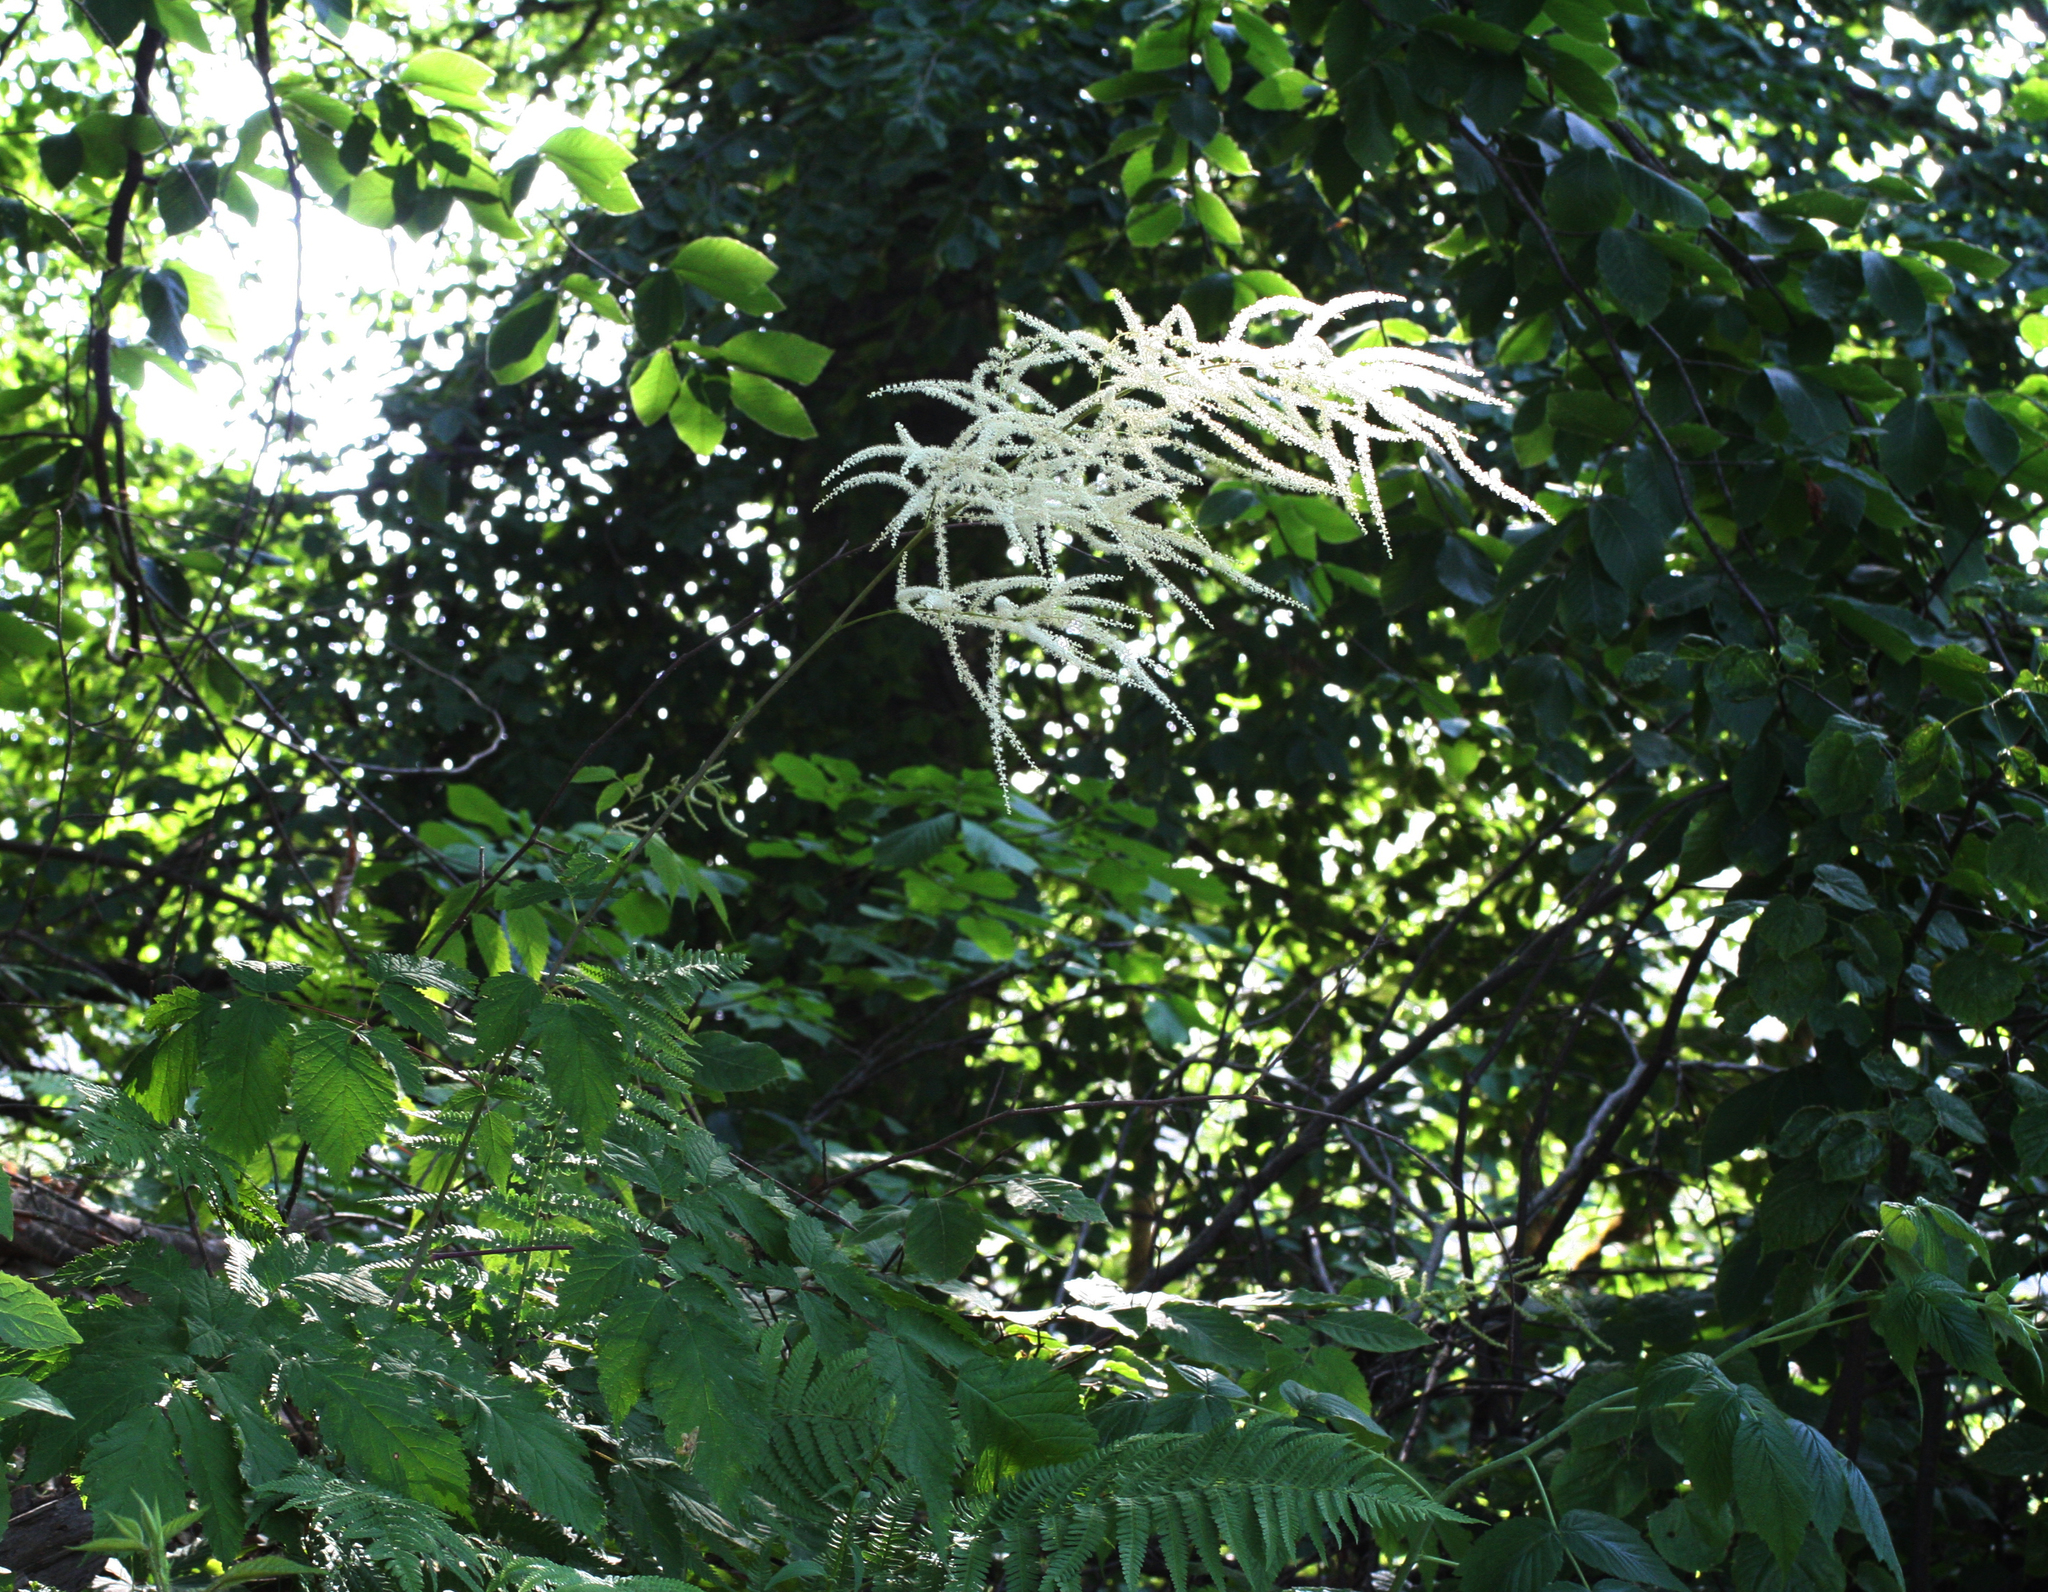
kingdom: Plantae
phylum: Tracheophyta
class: Magnoliopsida
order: Rosales
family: Rosaceae
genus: Aruncus
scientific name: Aruncus sylvester
